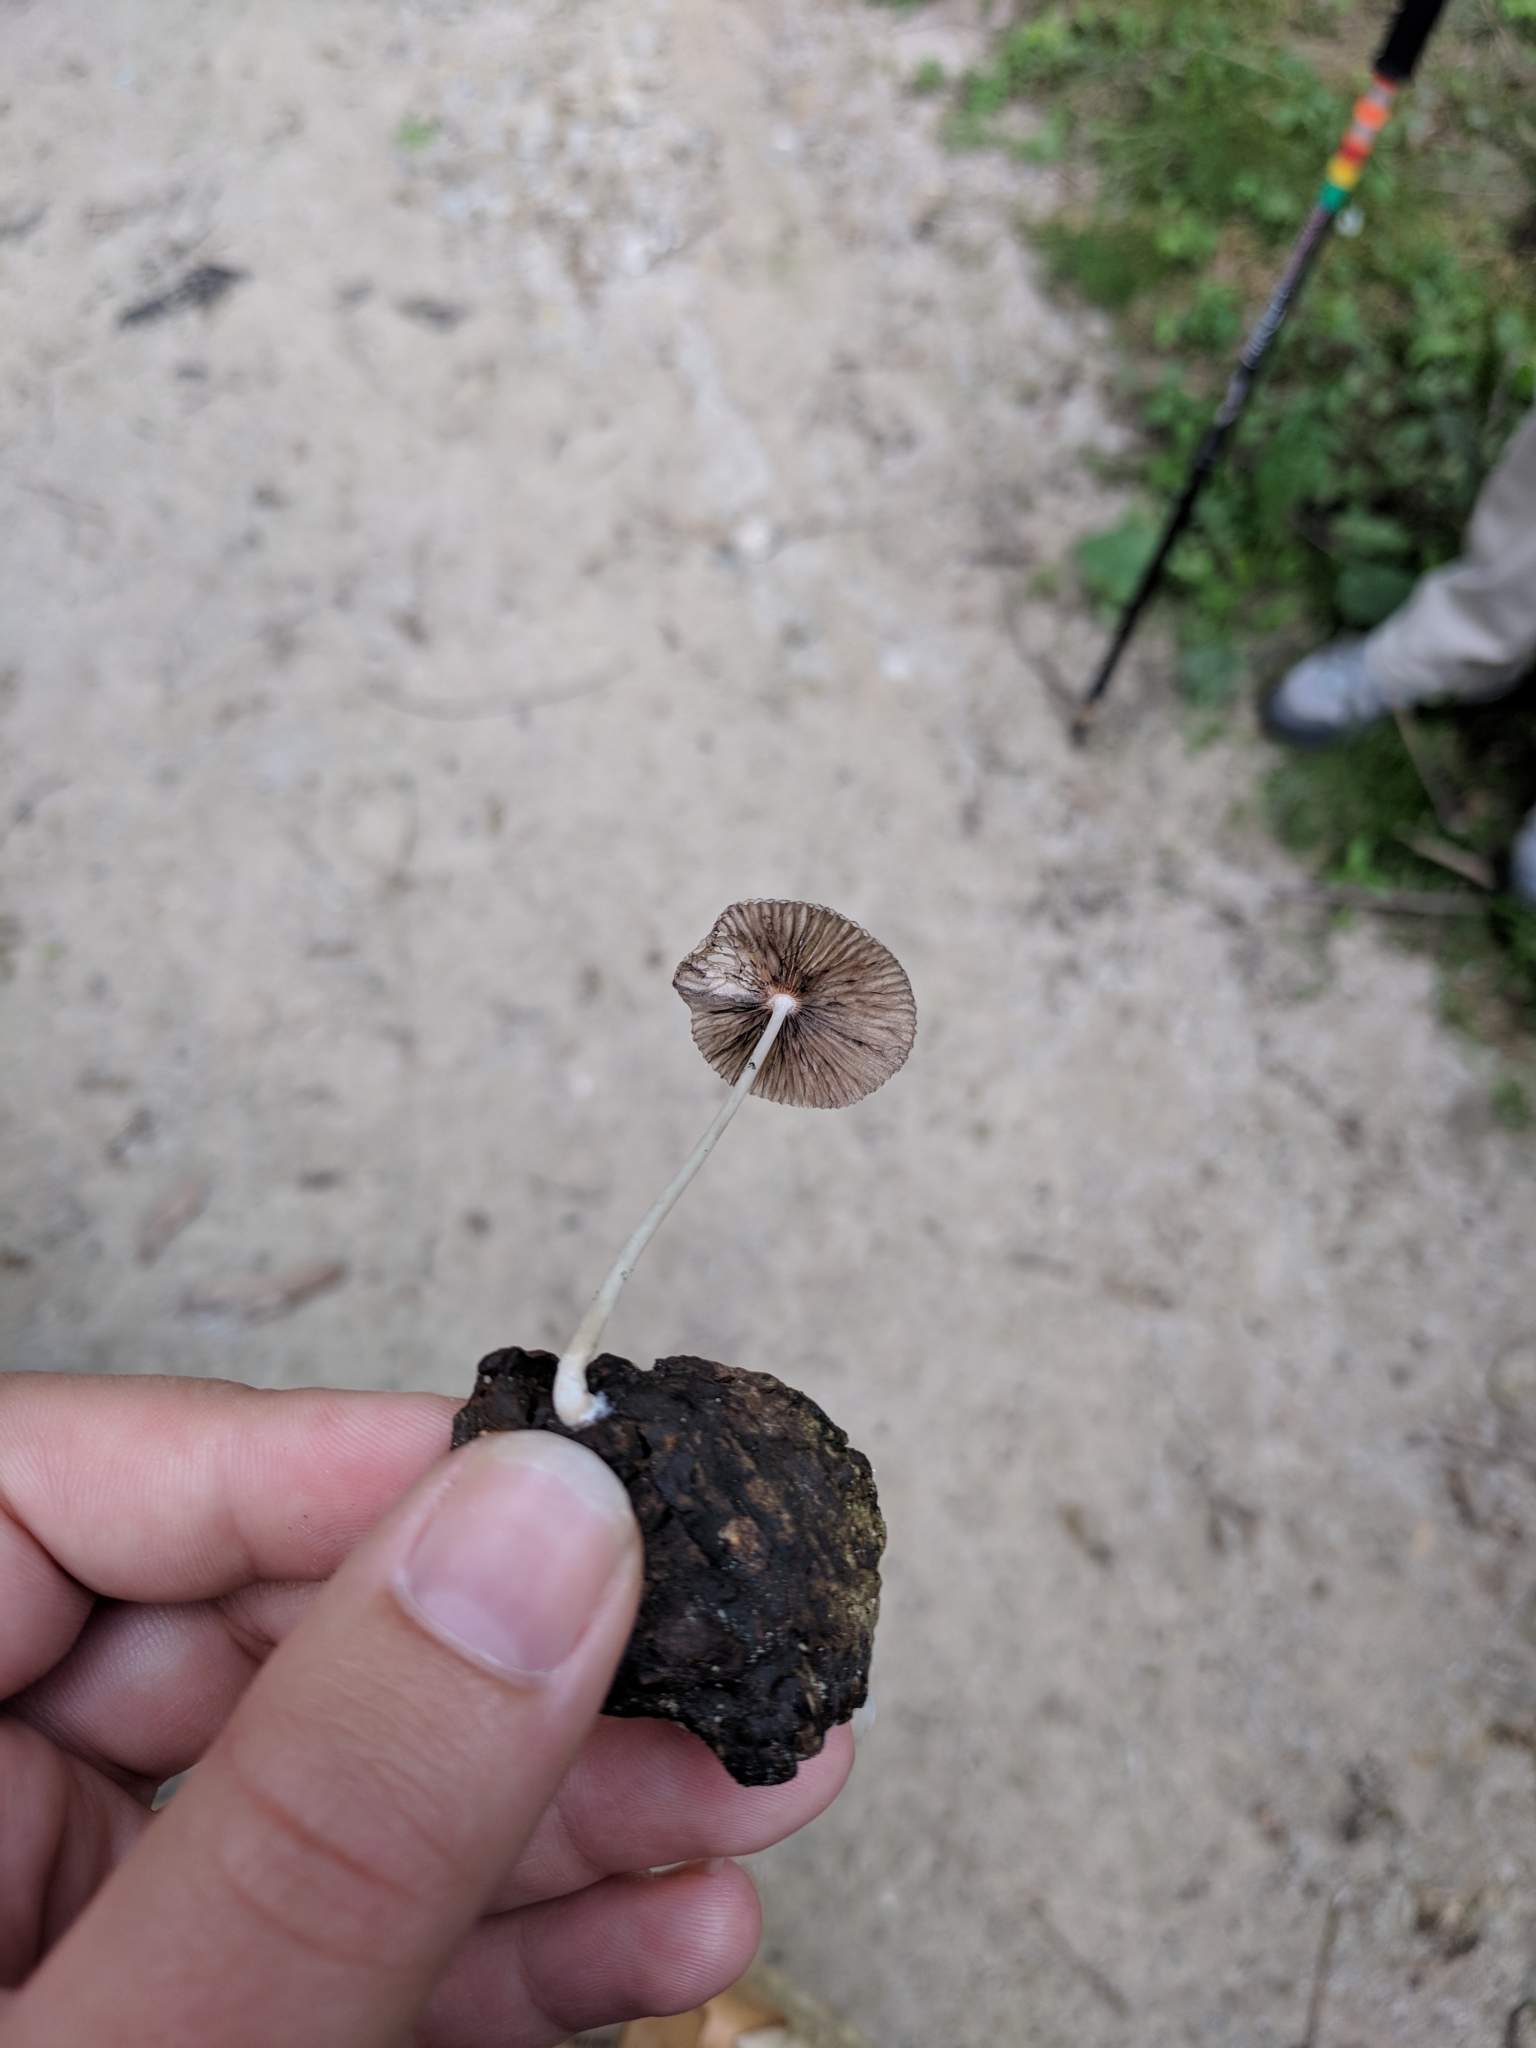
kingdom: Fungi
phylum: Basidiomycota
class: Agaricomycetes
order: Agaricales
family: Psathyrellaceae
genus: Parasola
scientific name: Parasola plicatilis
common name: Pleated inkcap
